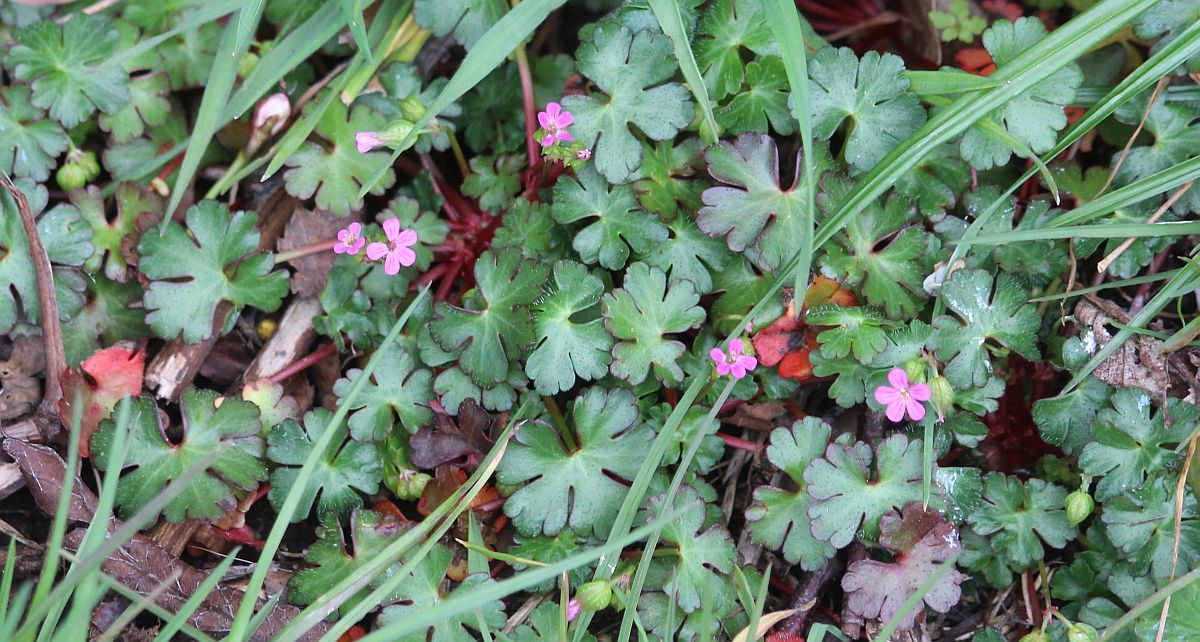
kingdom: Plantae
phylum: Tracheophyta
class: Magnoliopsida
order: Geraniales
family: Geraniaceae
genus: Geranium
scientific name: Geranium lucidum
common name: Shining crane's-bill
